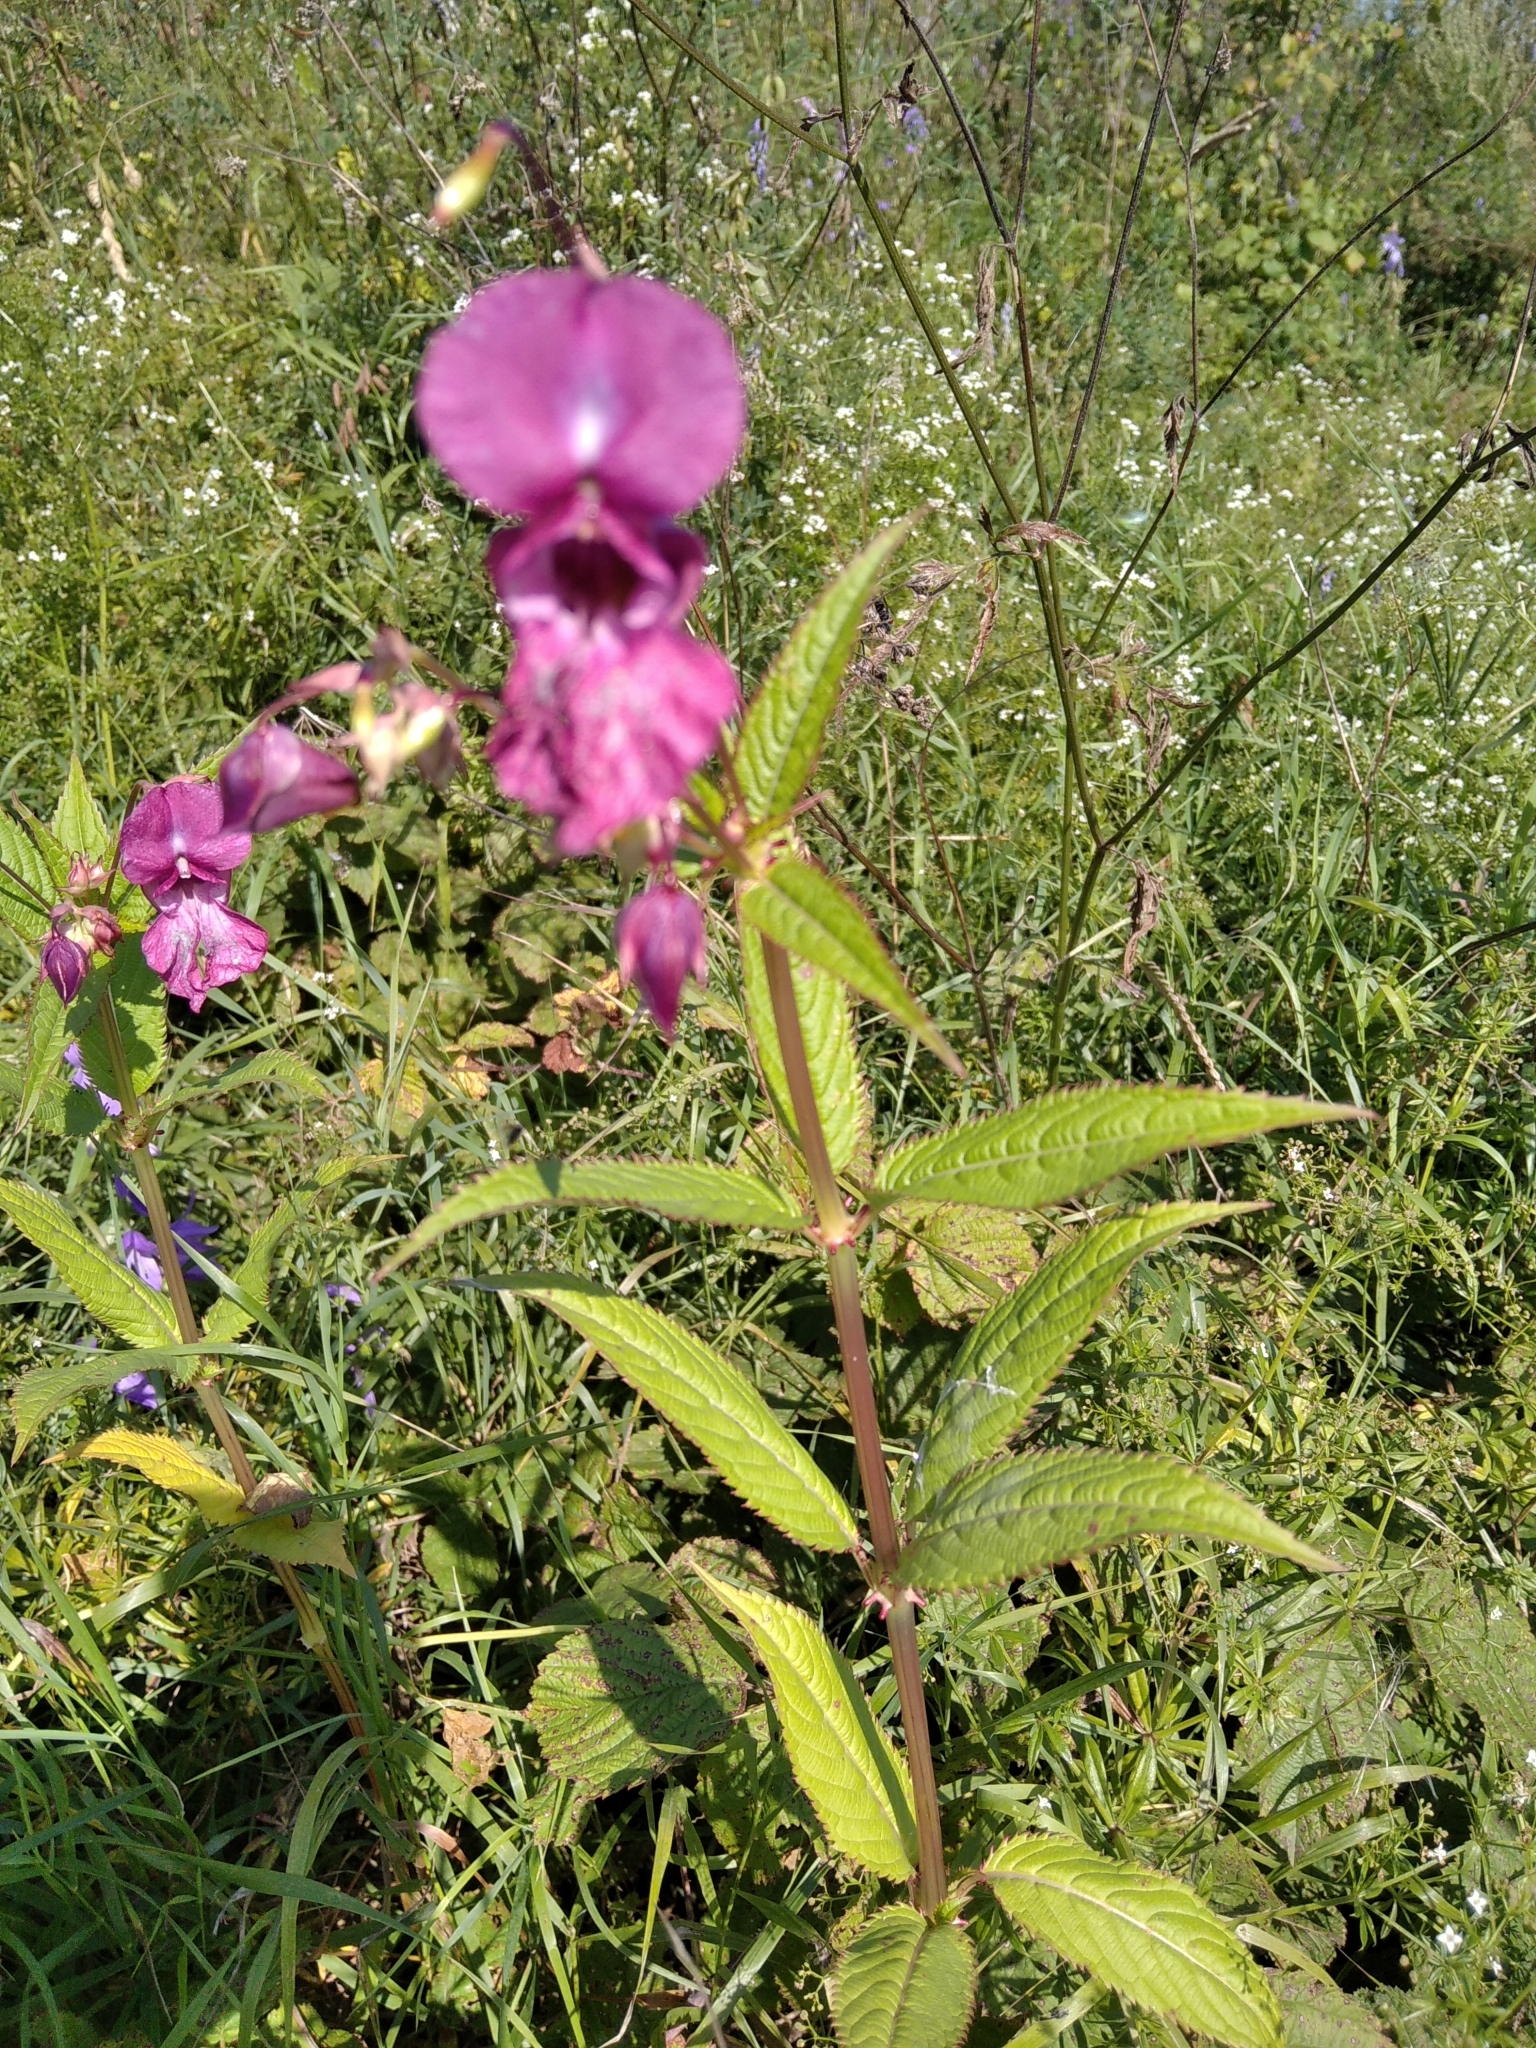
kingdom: Plantae
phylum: Tracheophyta
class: Magnoliopsida
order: Ericales
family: Balsaminaceae
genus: Impatiens
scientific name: Impatiens glandulifera
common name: Himalayan balsam
